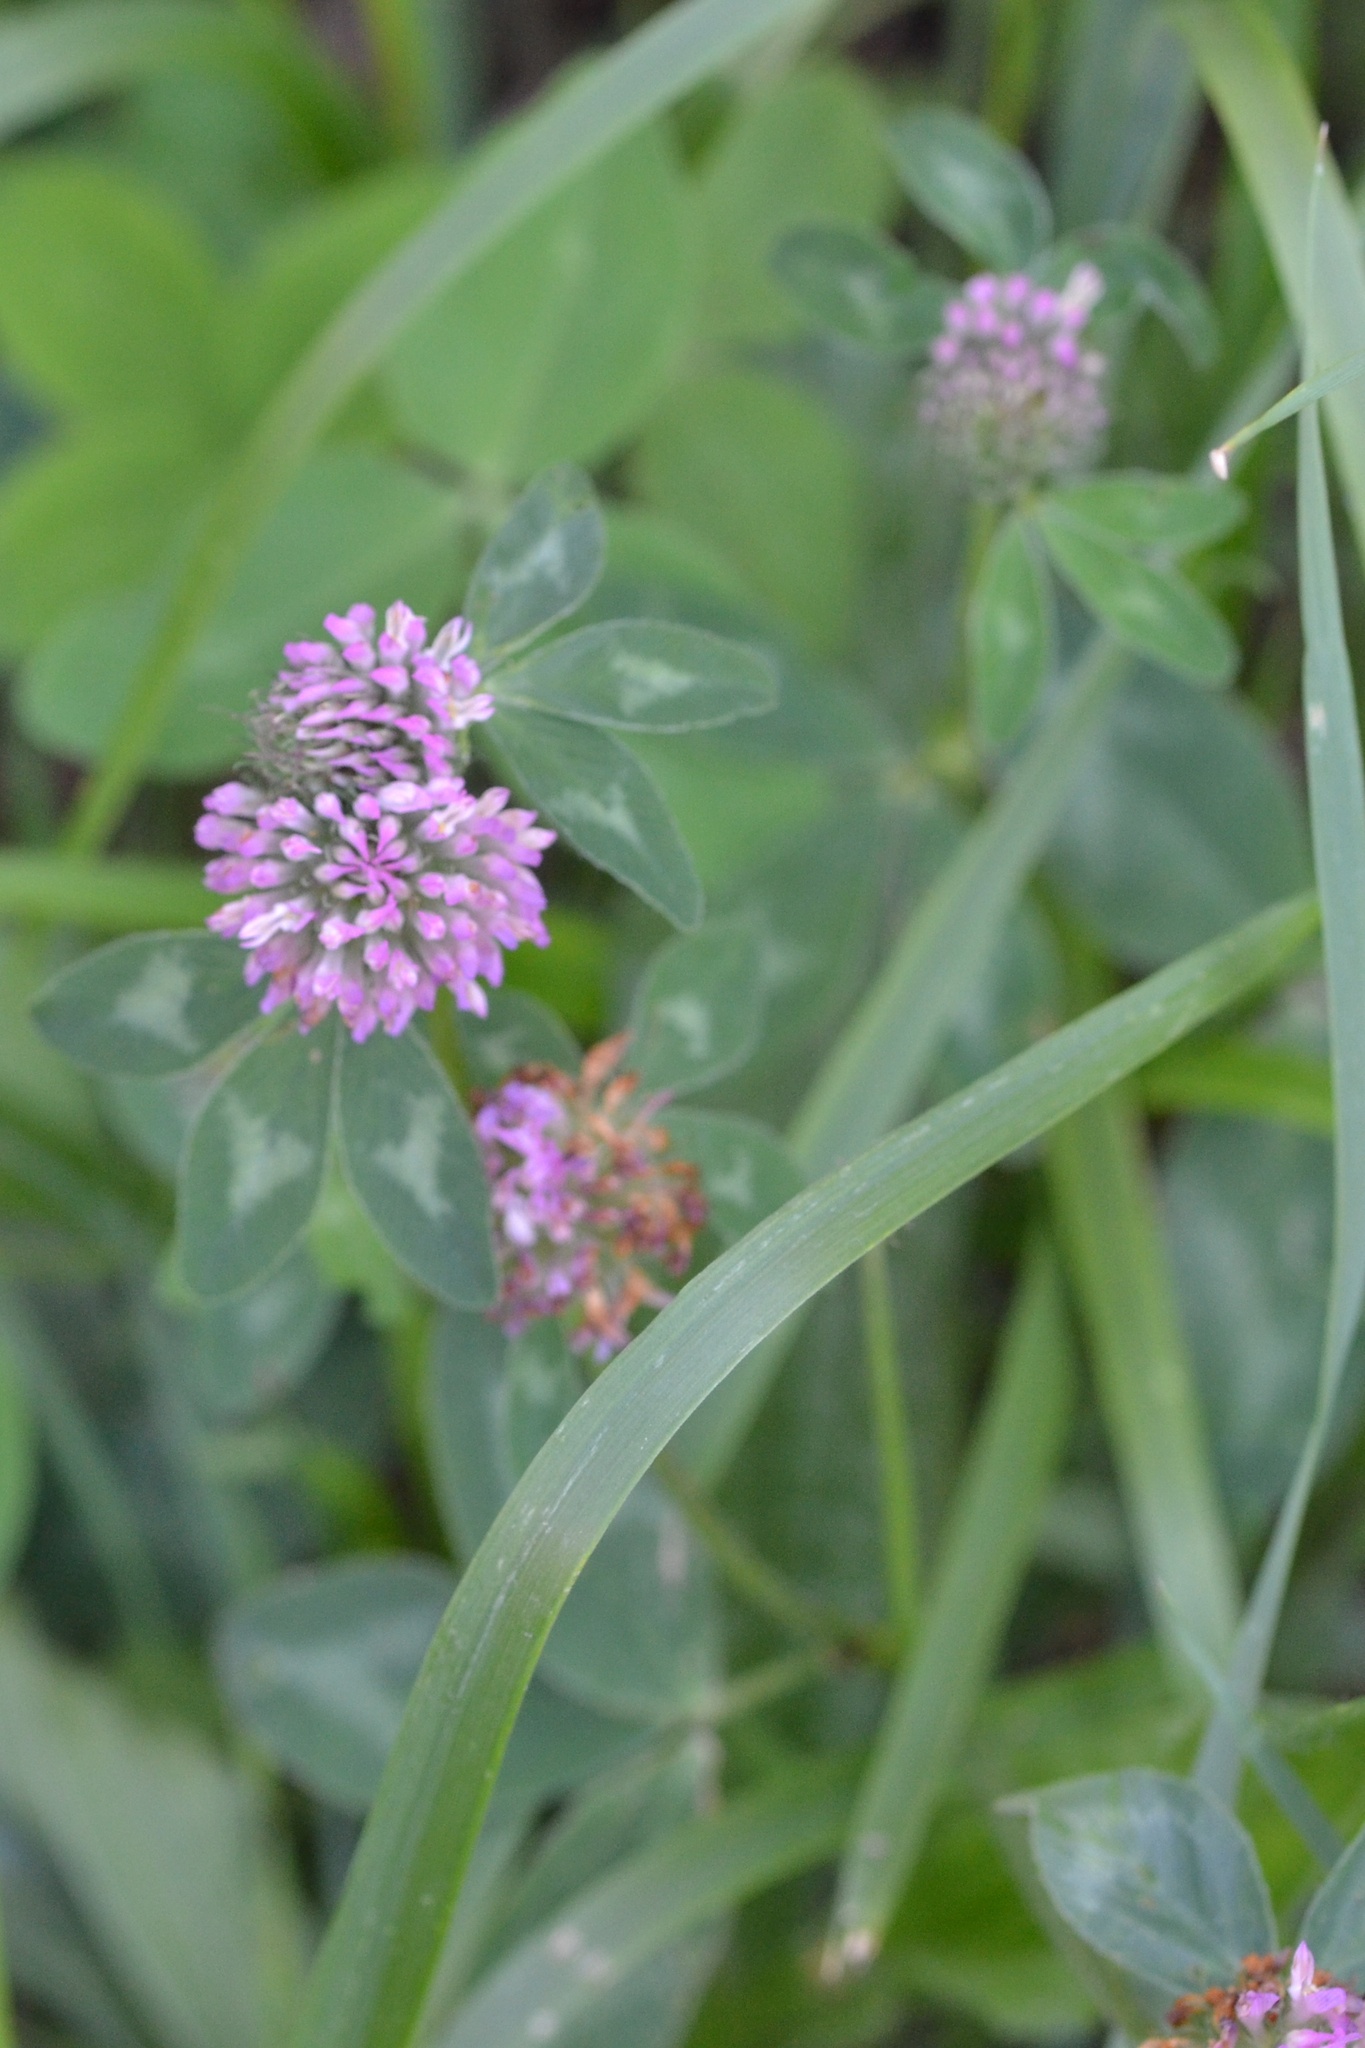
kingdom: Plantae
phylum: Tracheophyta
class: Magnoliopsida
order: Fabales
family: Fabaceae
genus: Trifolium
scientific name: Trifolium pratense
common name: Red clover
